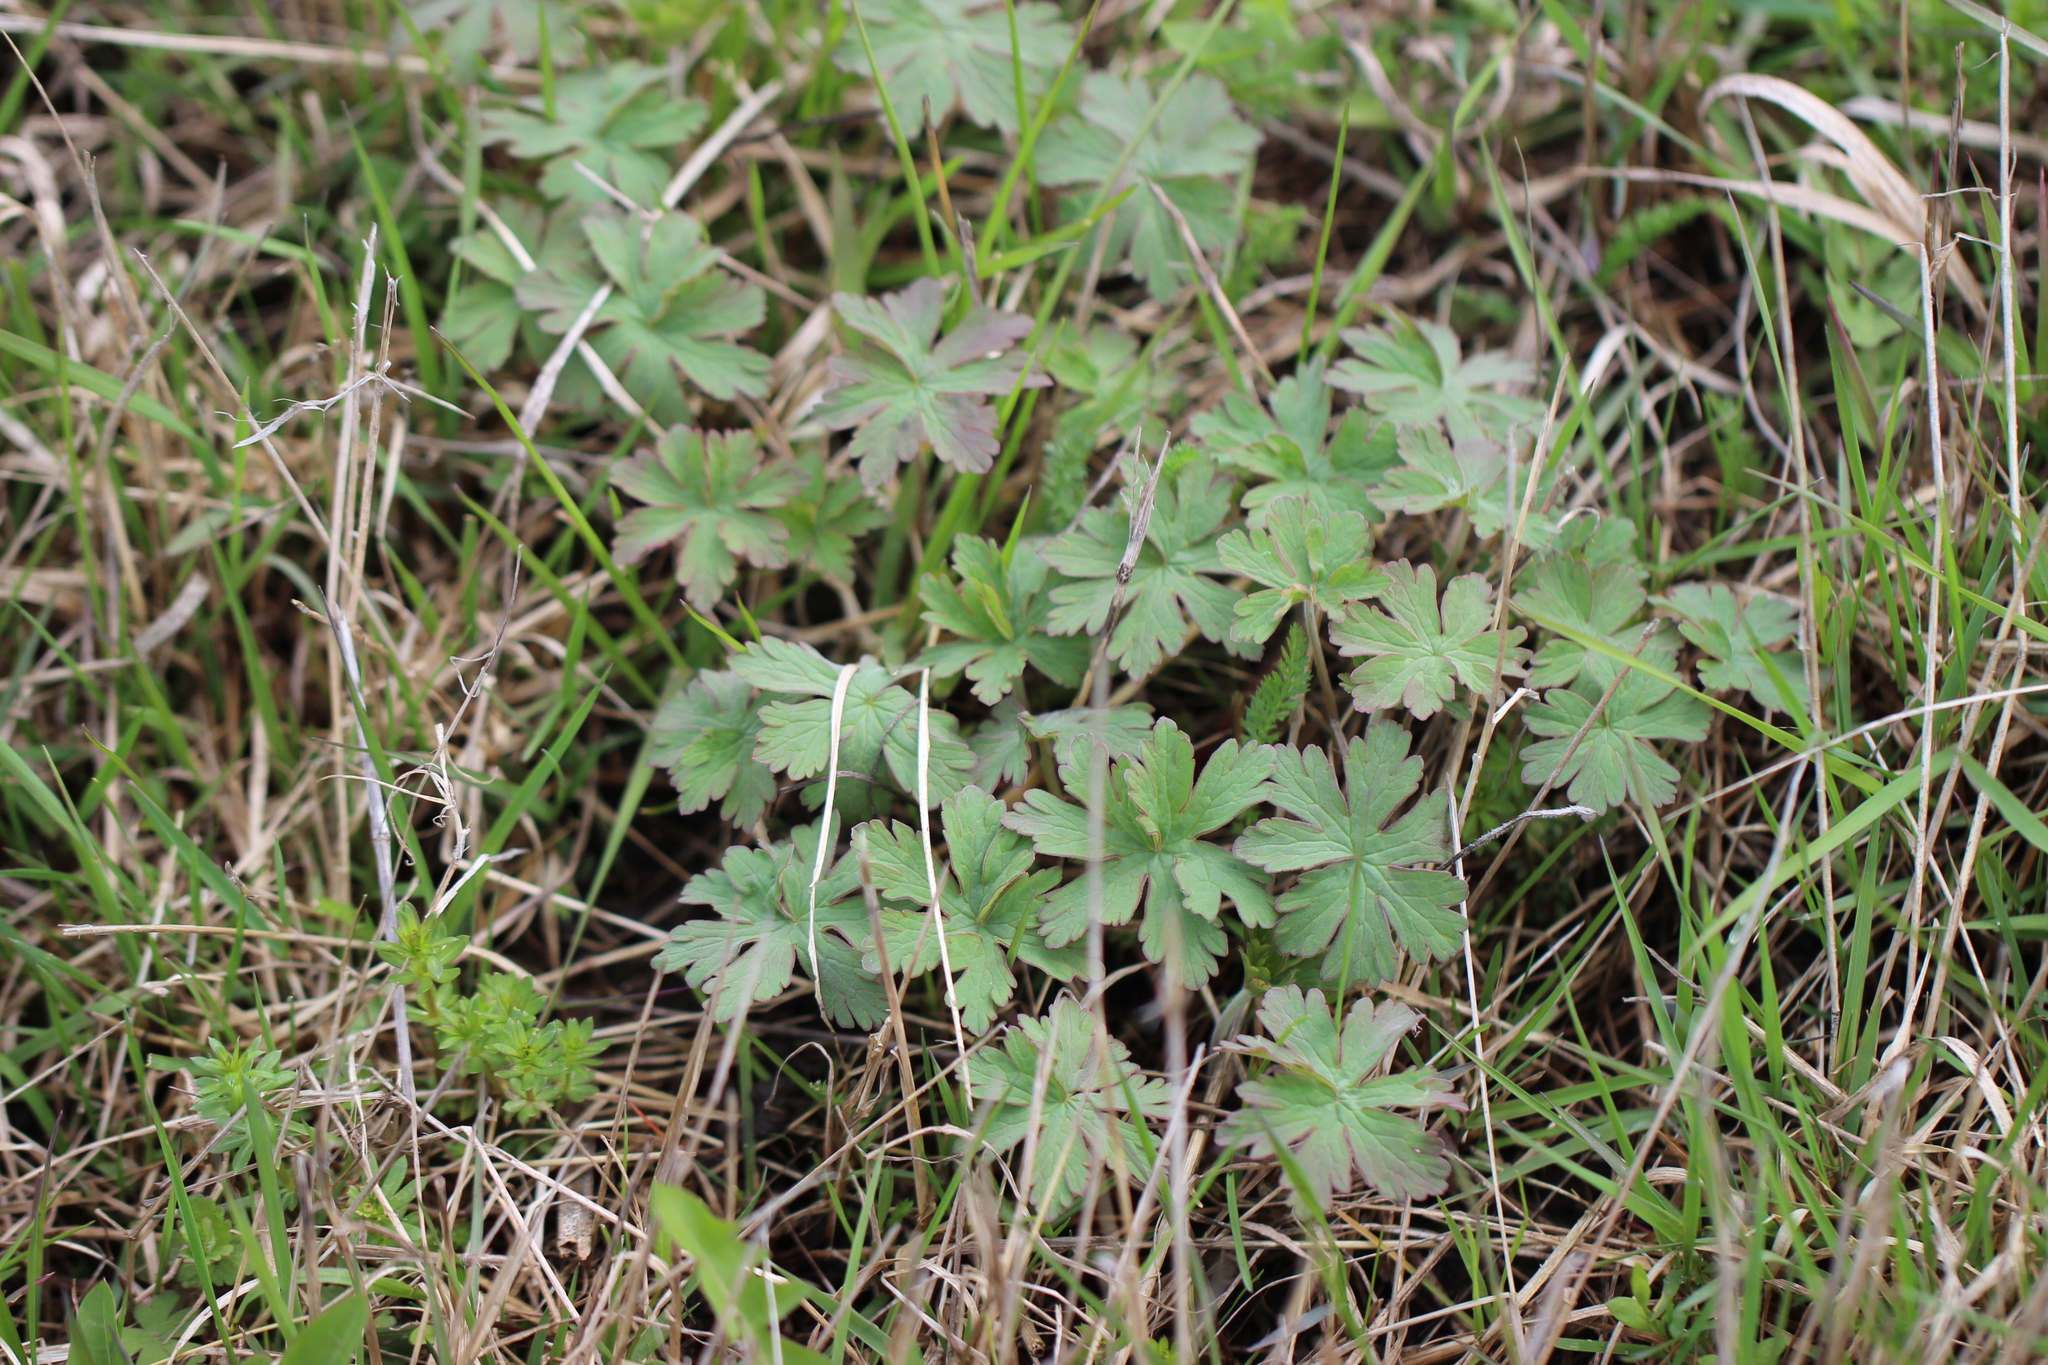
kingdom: Plantae
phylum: Tracheophyta
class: Magnoliopsida
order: Geraniales
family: Geraniaceae
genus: Geranium
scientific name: Geranium pratense
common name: Meadow crane's-bill
